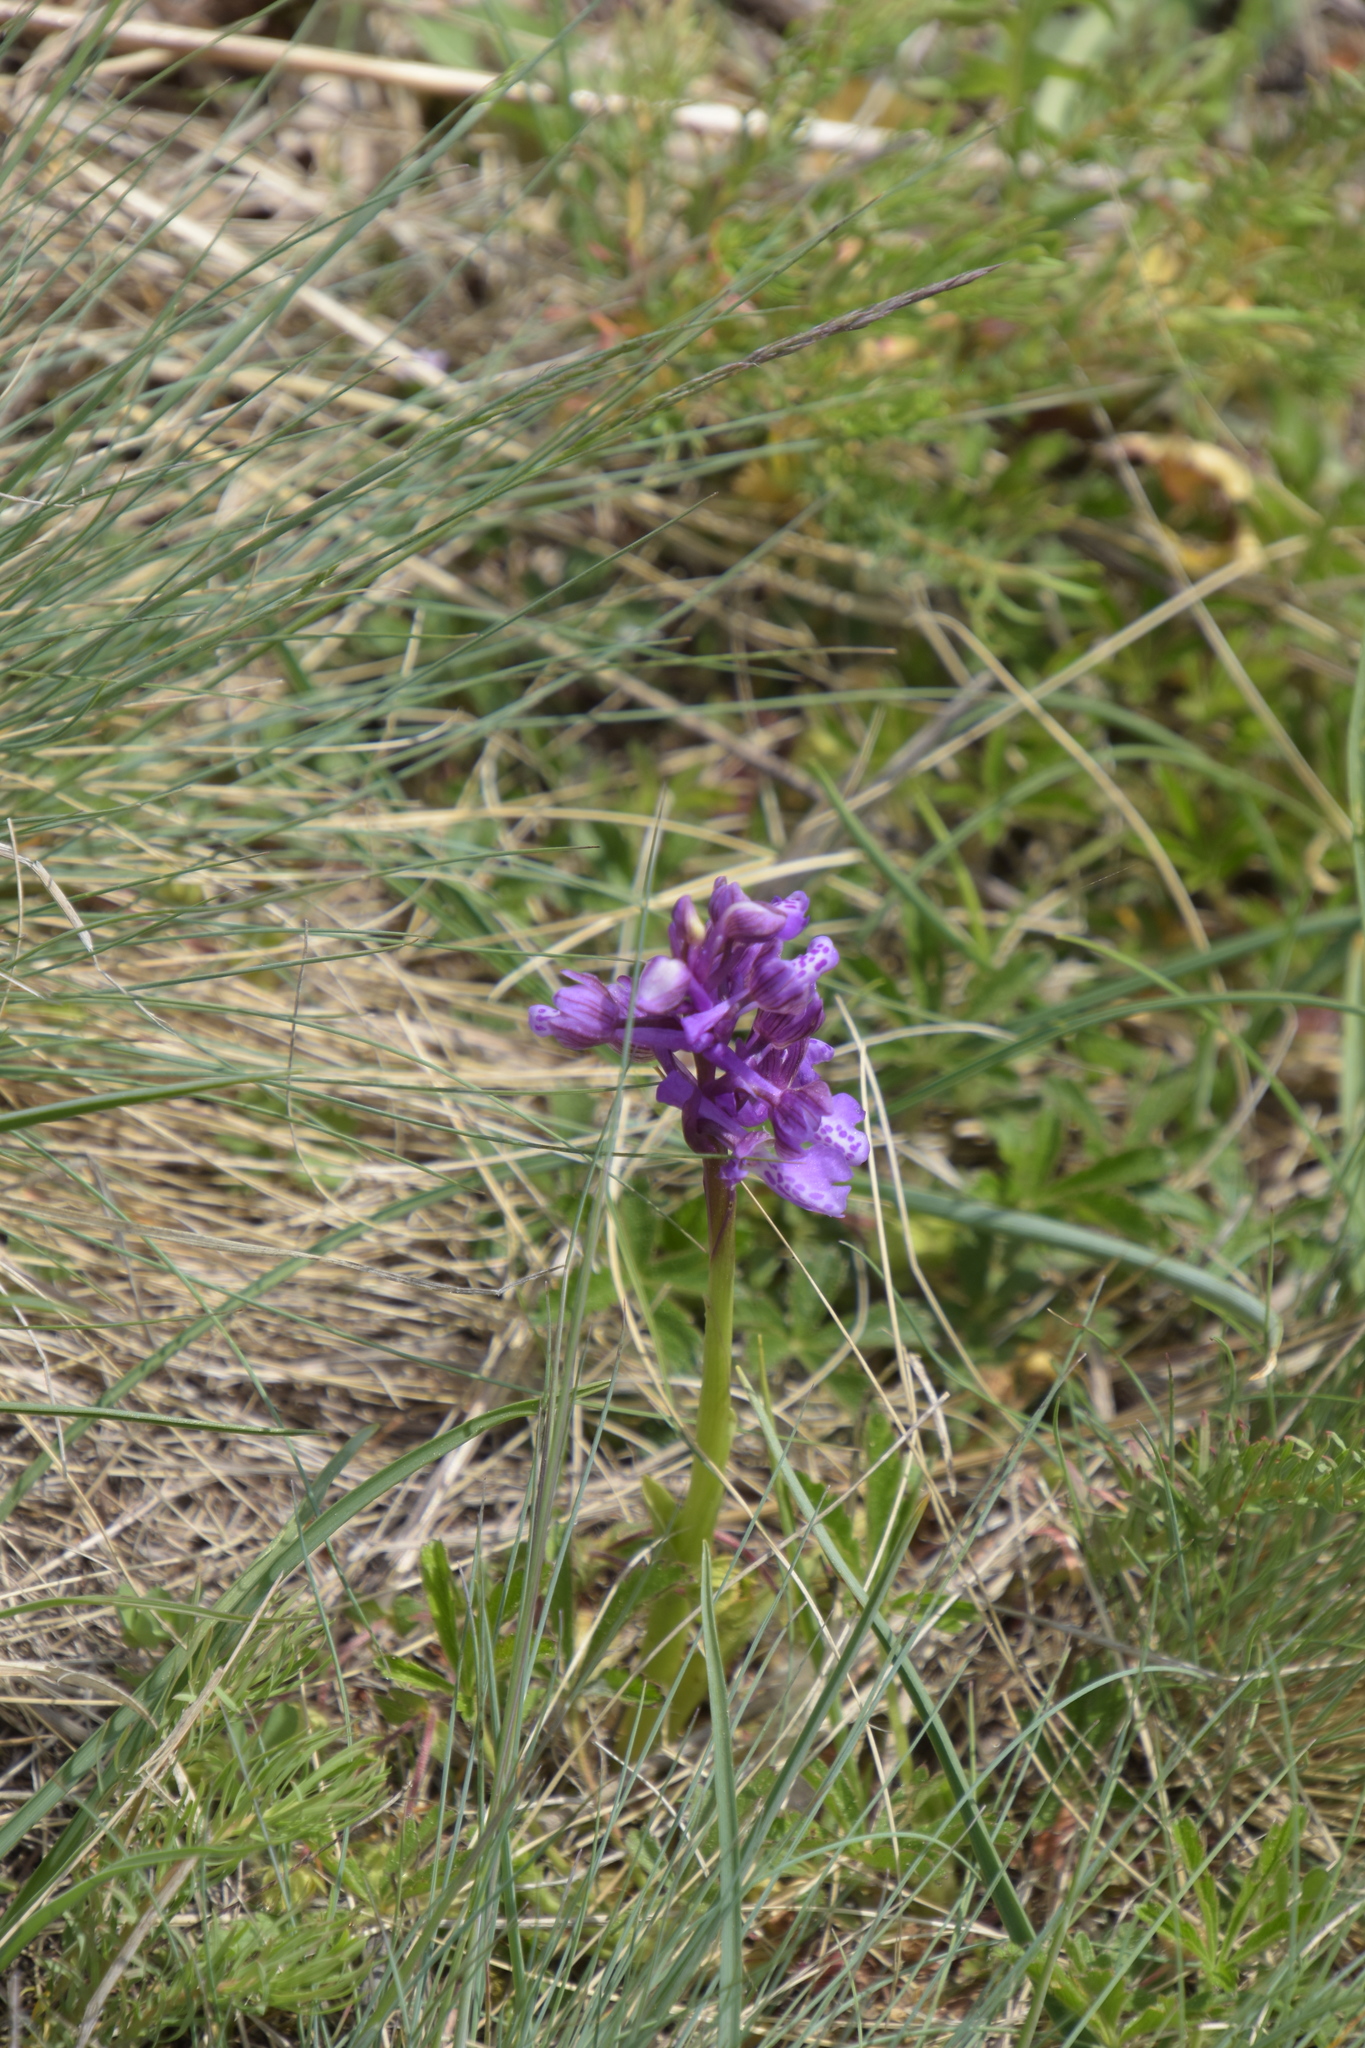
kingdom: Plantae
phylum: Tracheophyta
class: Liliopsida
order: Asparagales
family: Orchidaceae
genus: Anacamptis
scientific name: Anacamptis morio
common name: Green-winged orchid
